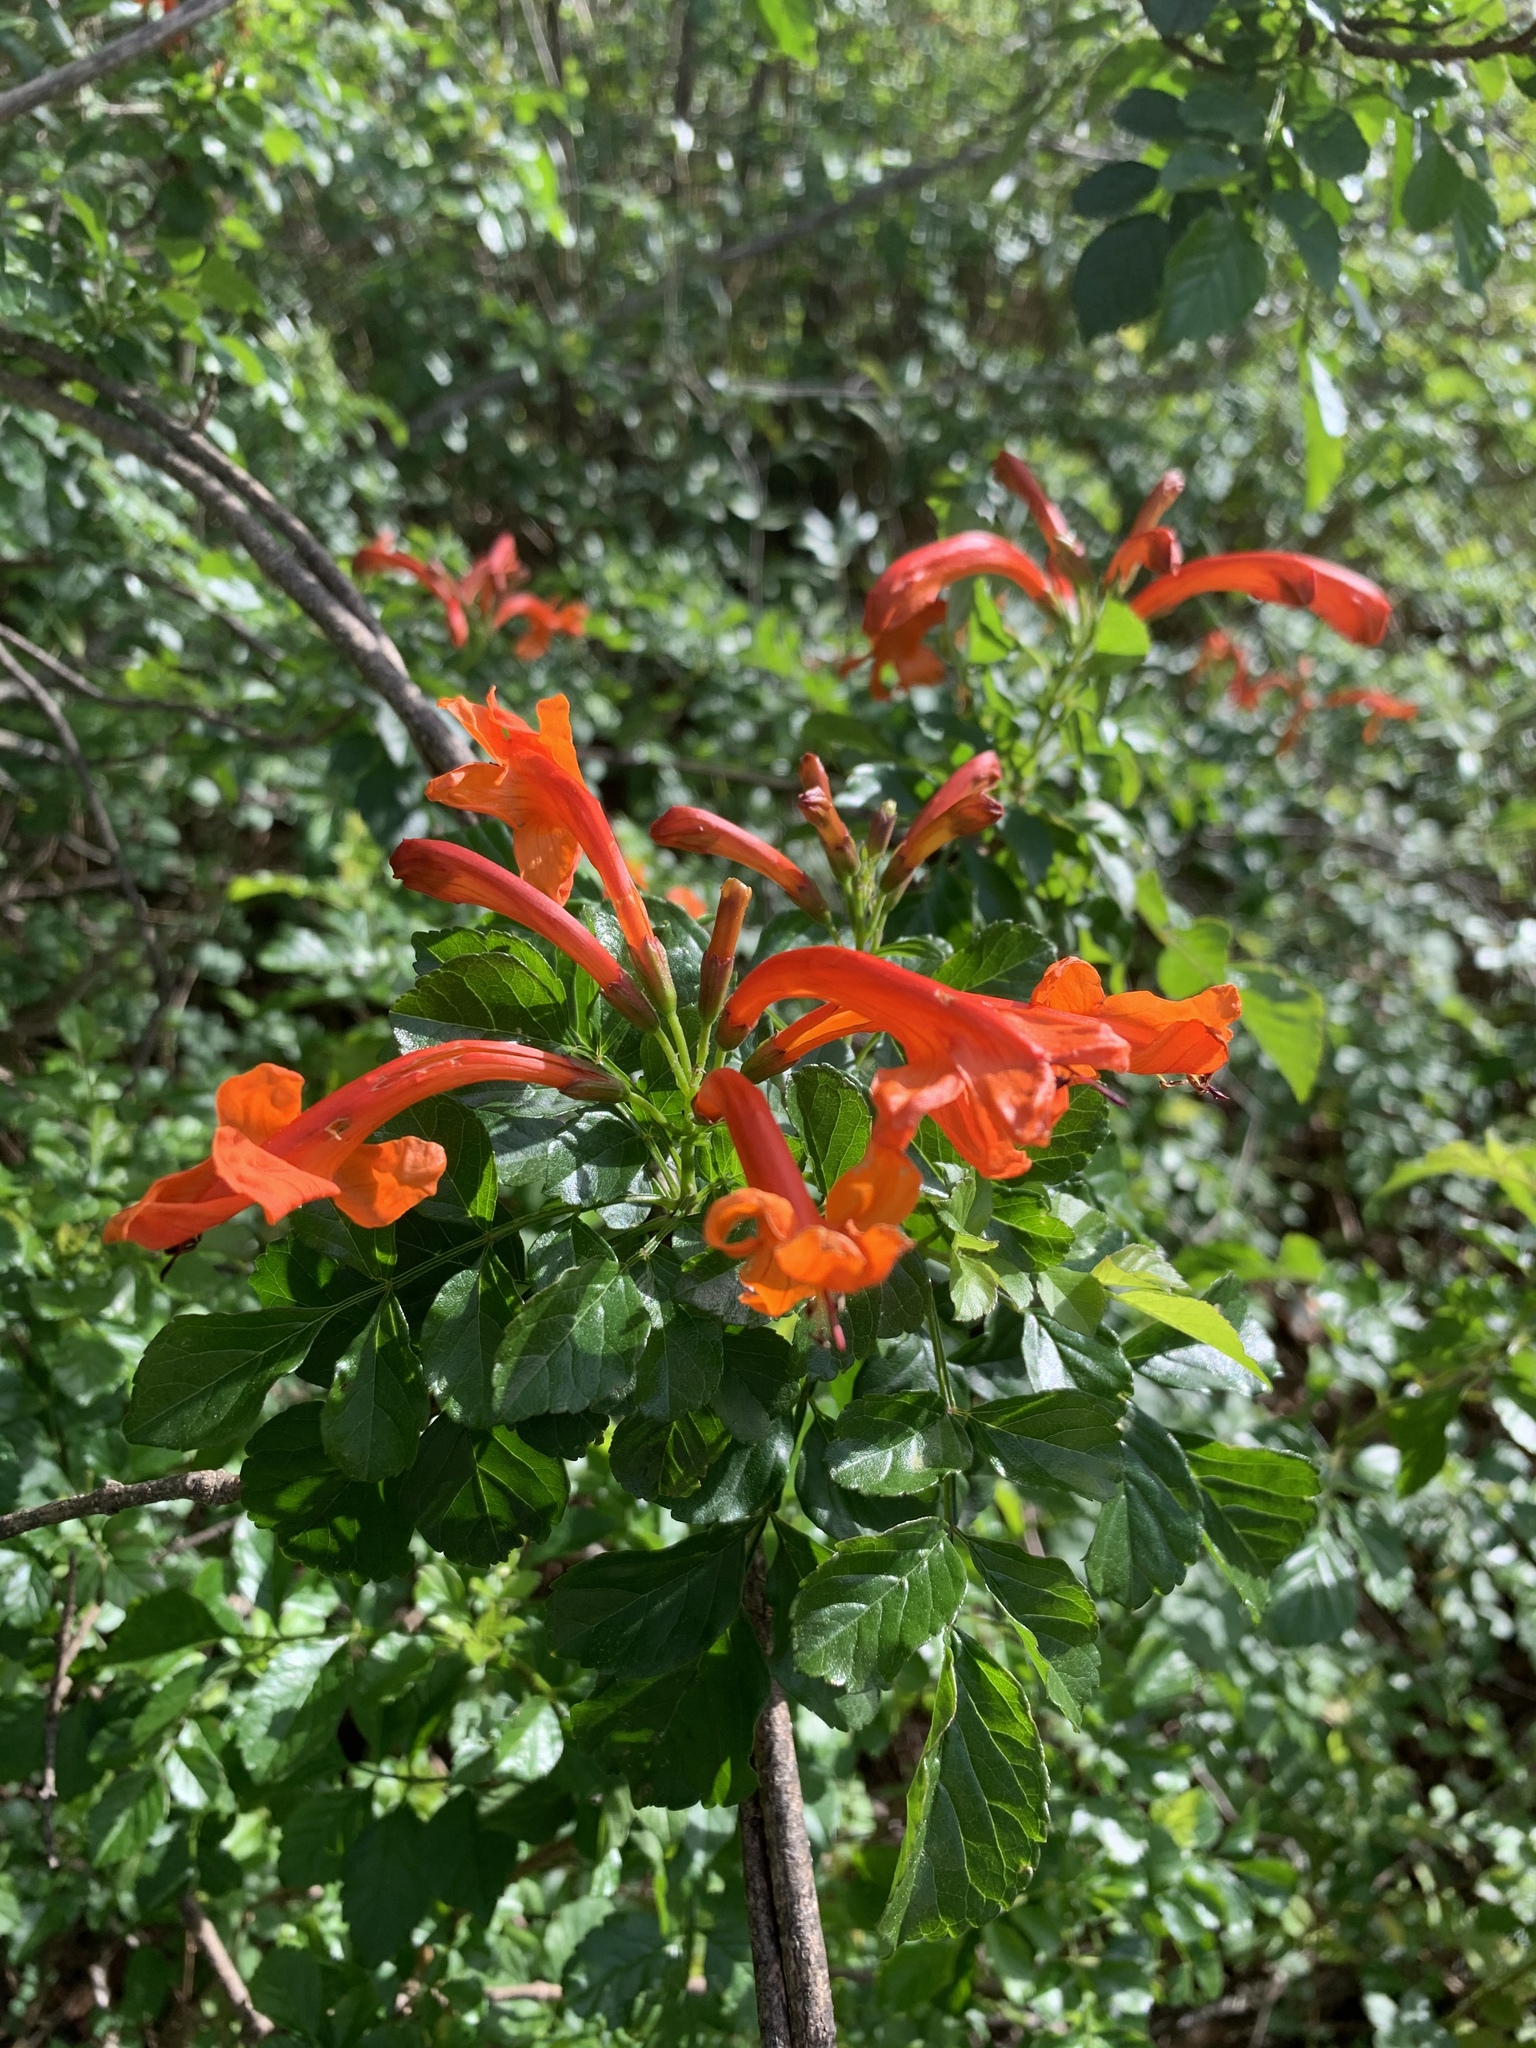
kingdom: Plantae
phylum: Tracheophyta
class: Magnoliopsida
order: Lamiales
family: Bignoniaceae
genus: Tecomaria
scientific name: Tecomaria capensis
